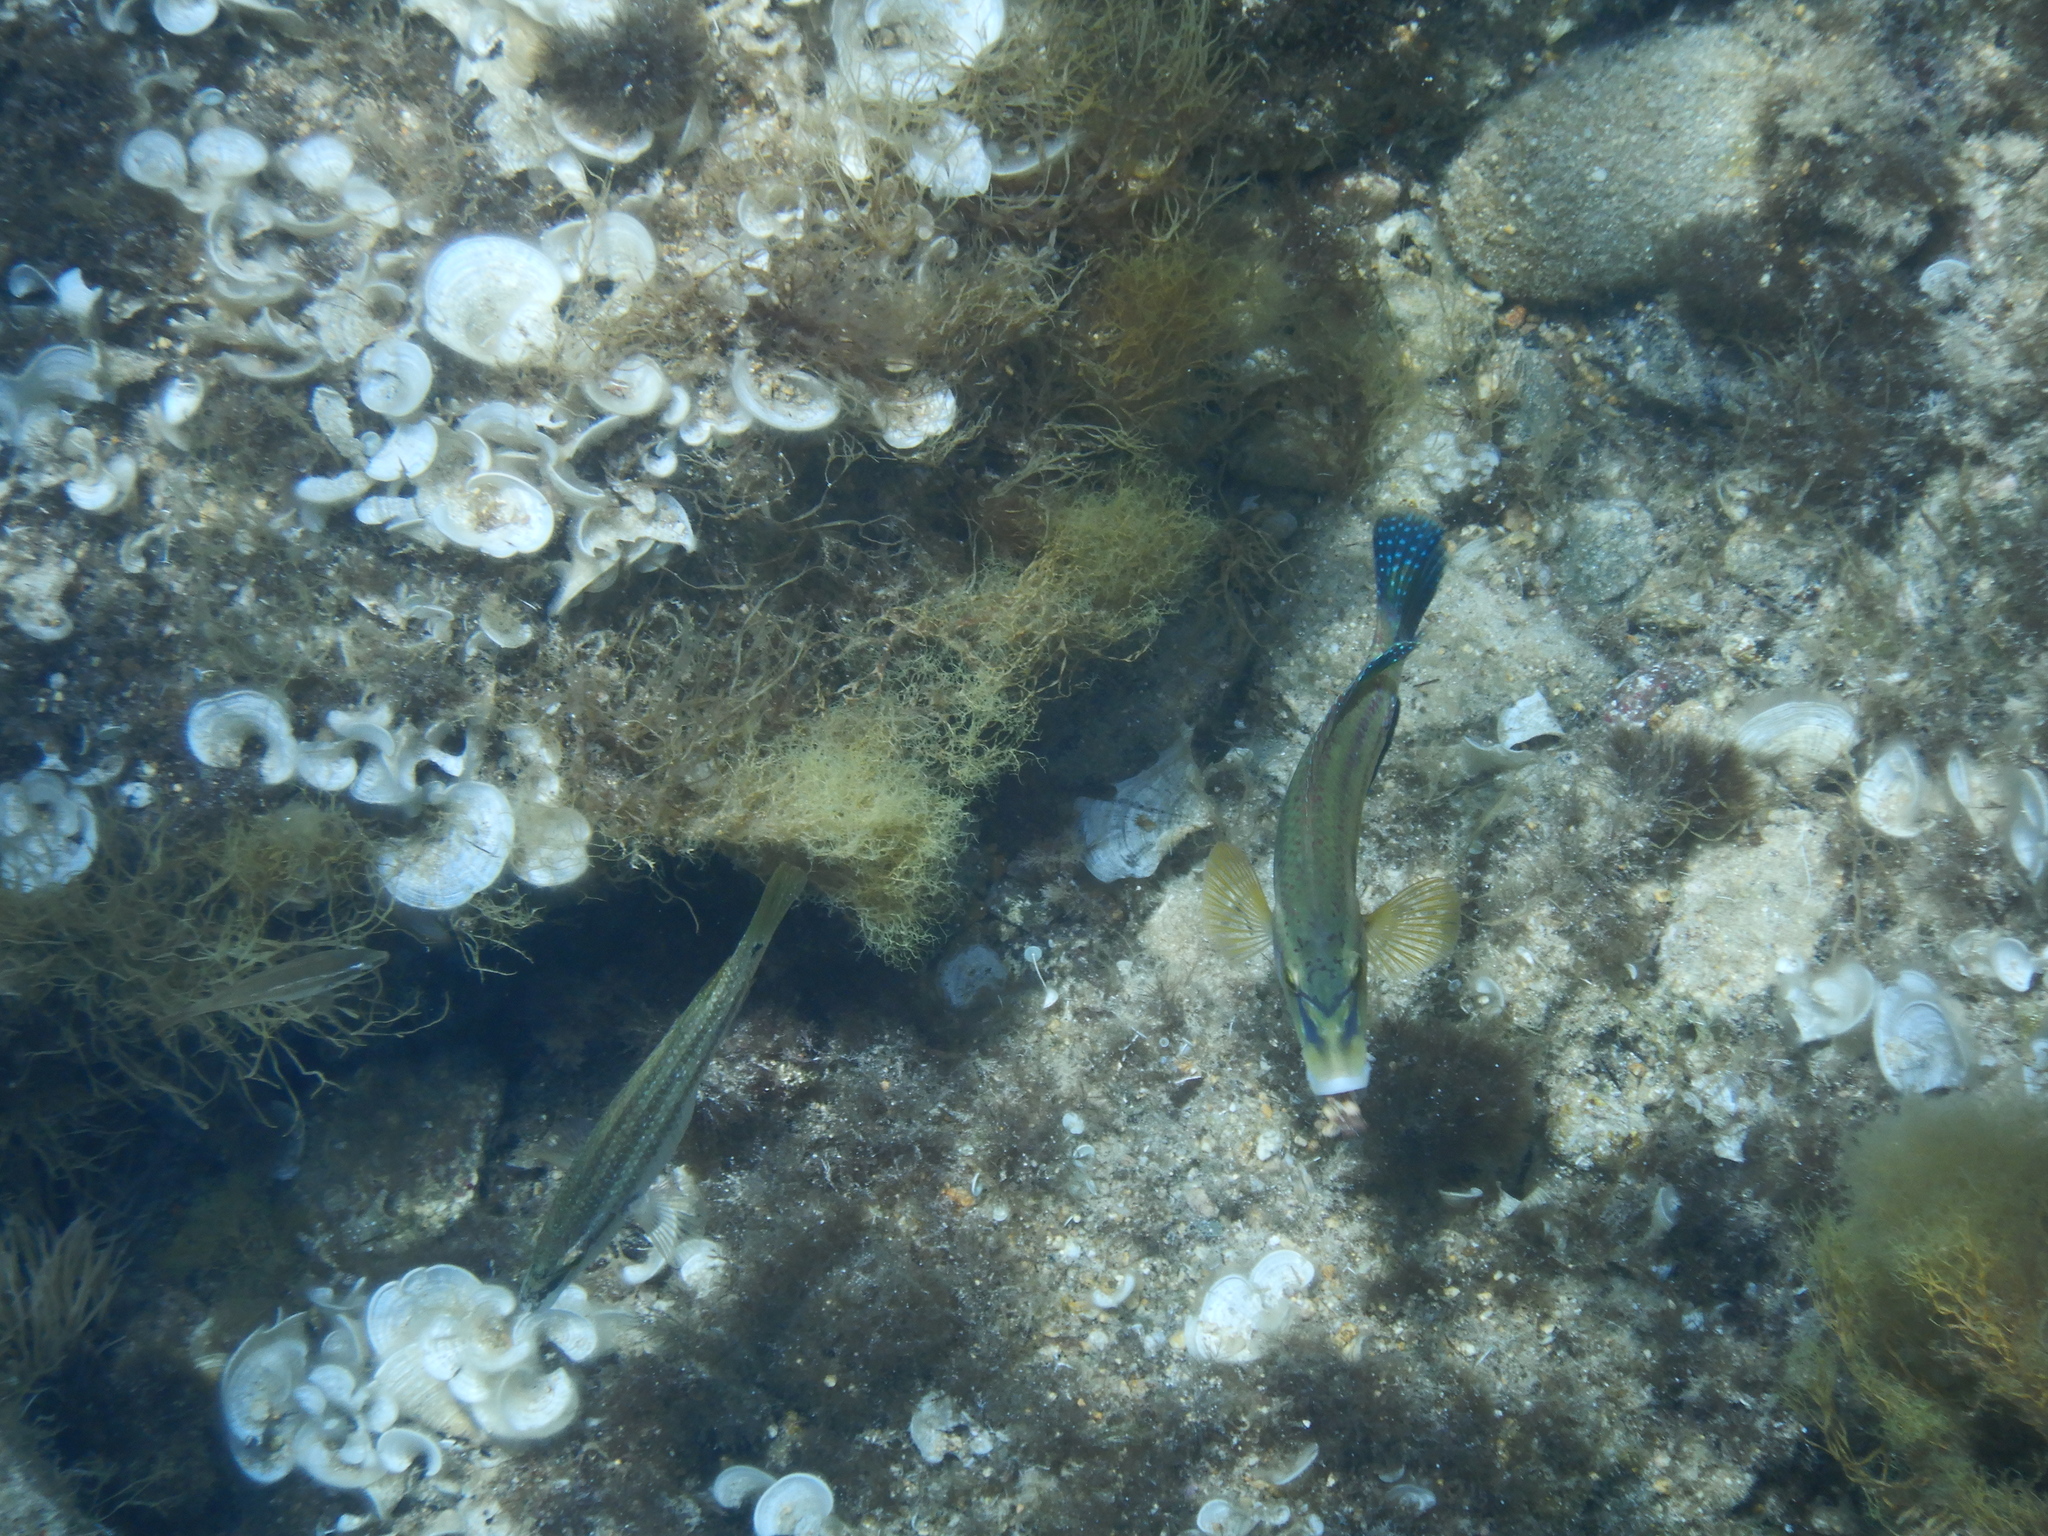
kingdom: Animalia
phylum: Chordata
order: Perciformes
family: Labridae
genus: Symphodus
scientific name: Symphodus tinca
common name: Peacock wrasse
